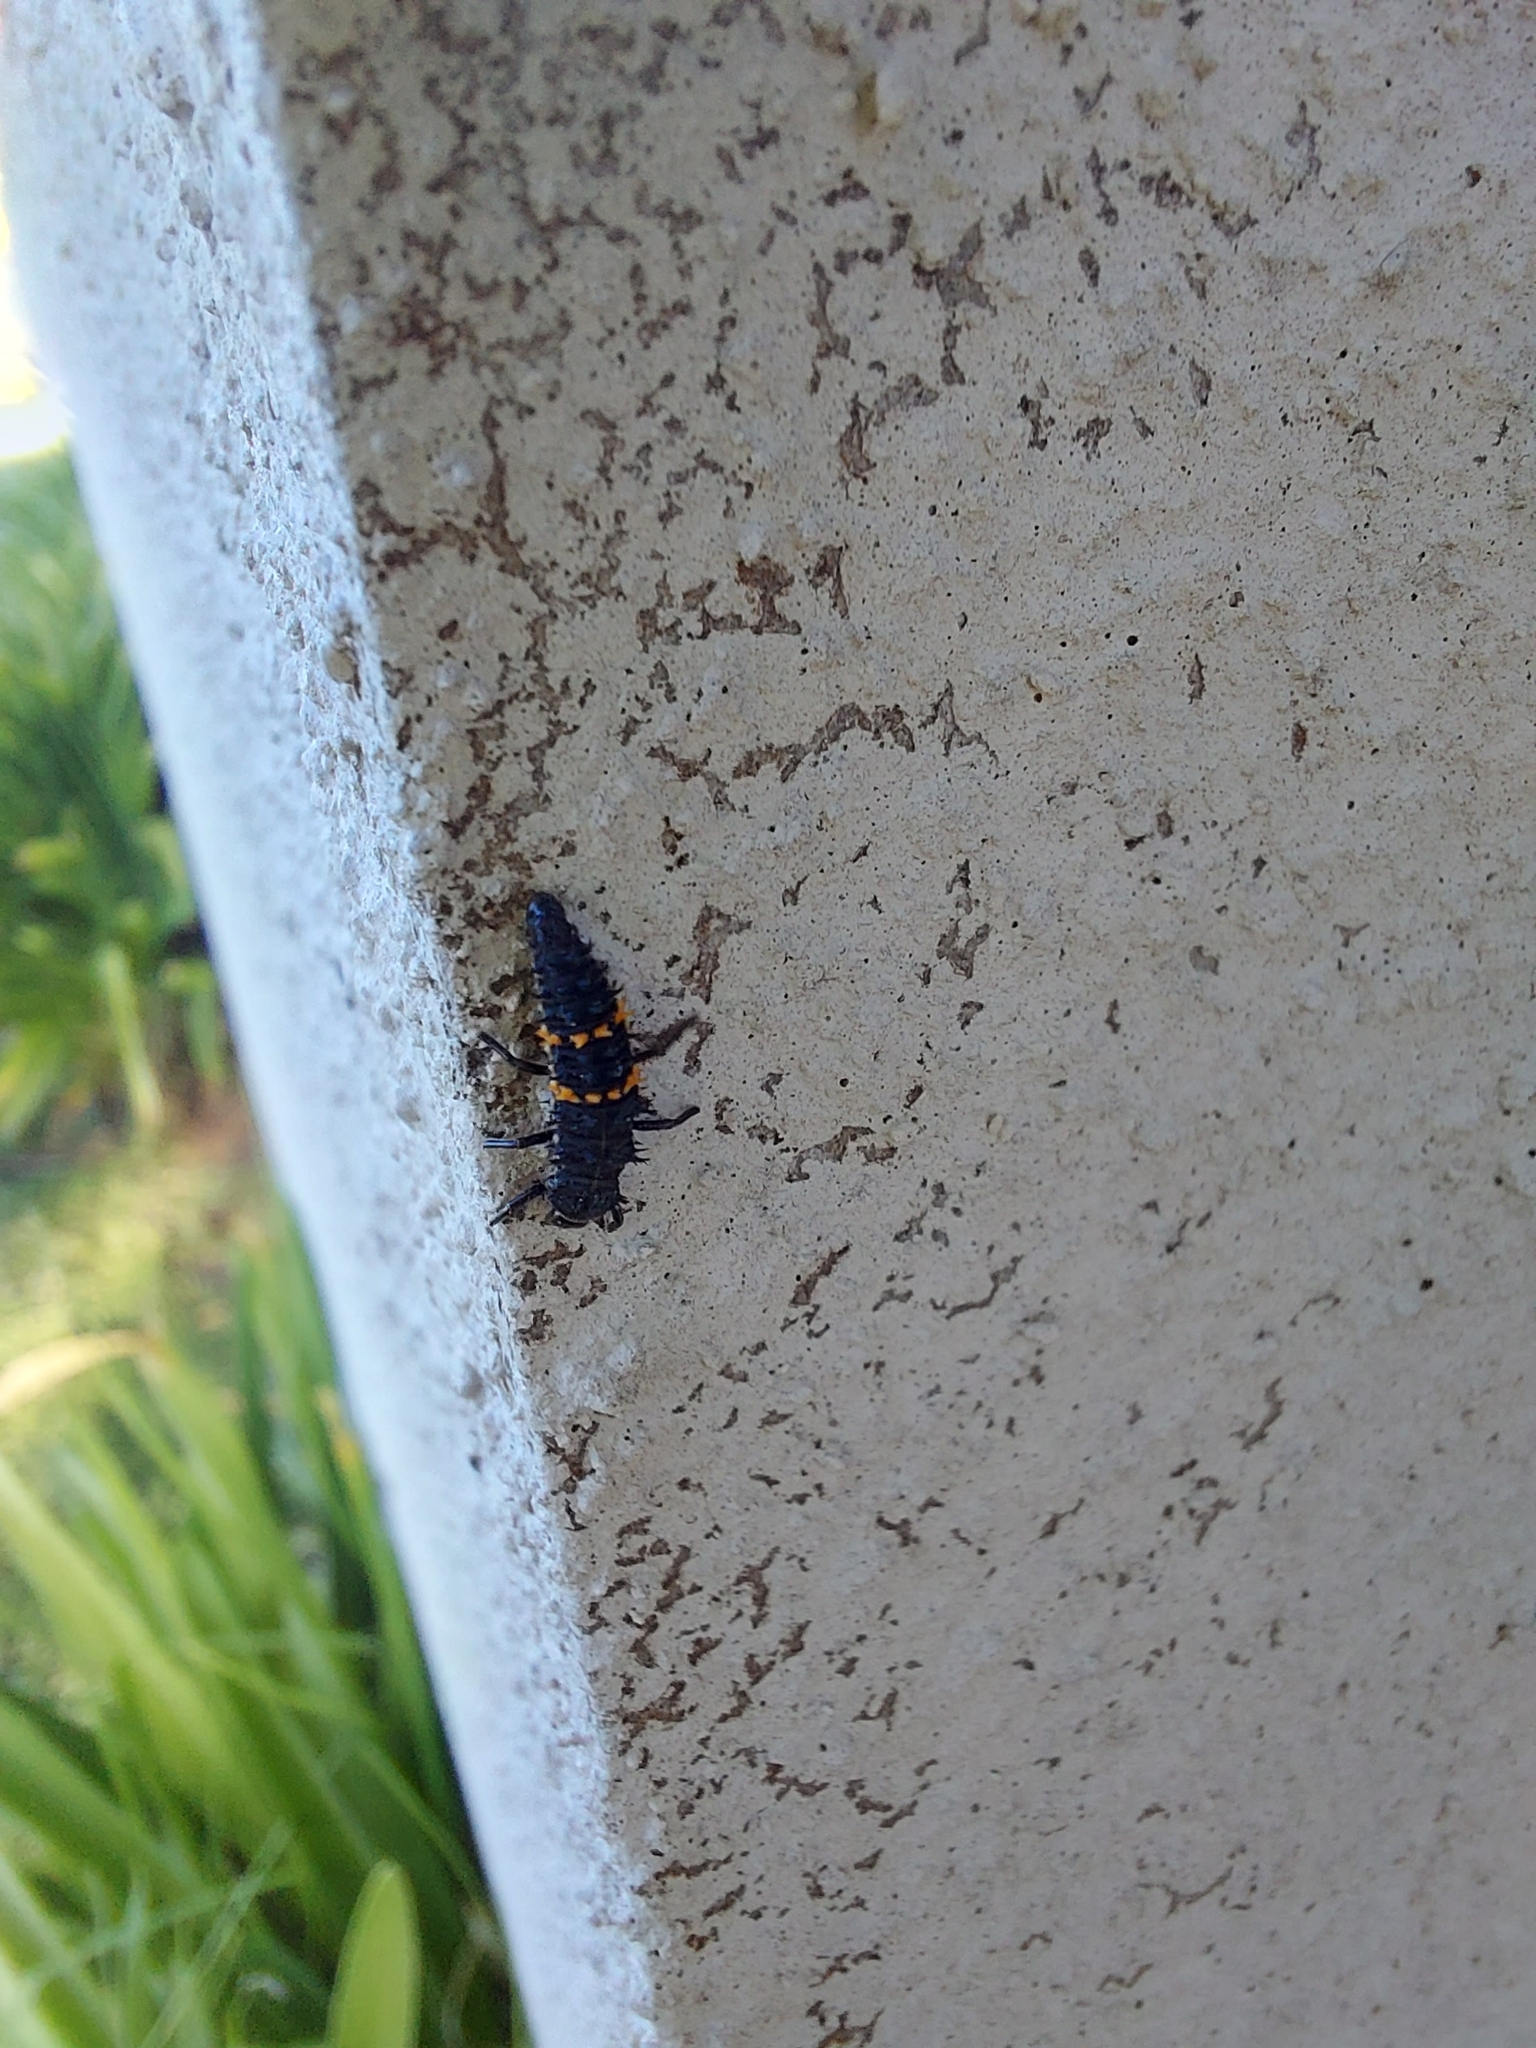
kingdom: Animalia
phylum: Arthropoda
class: Insecta
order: Coleoptera
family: Coccinellidae
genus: Harmonia
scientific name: Harmonia conformis
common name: Common spotted ladybird beetle
